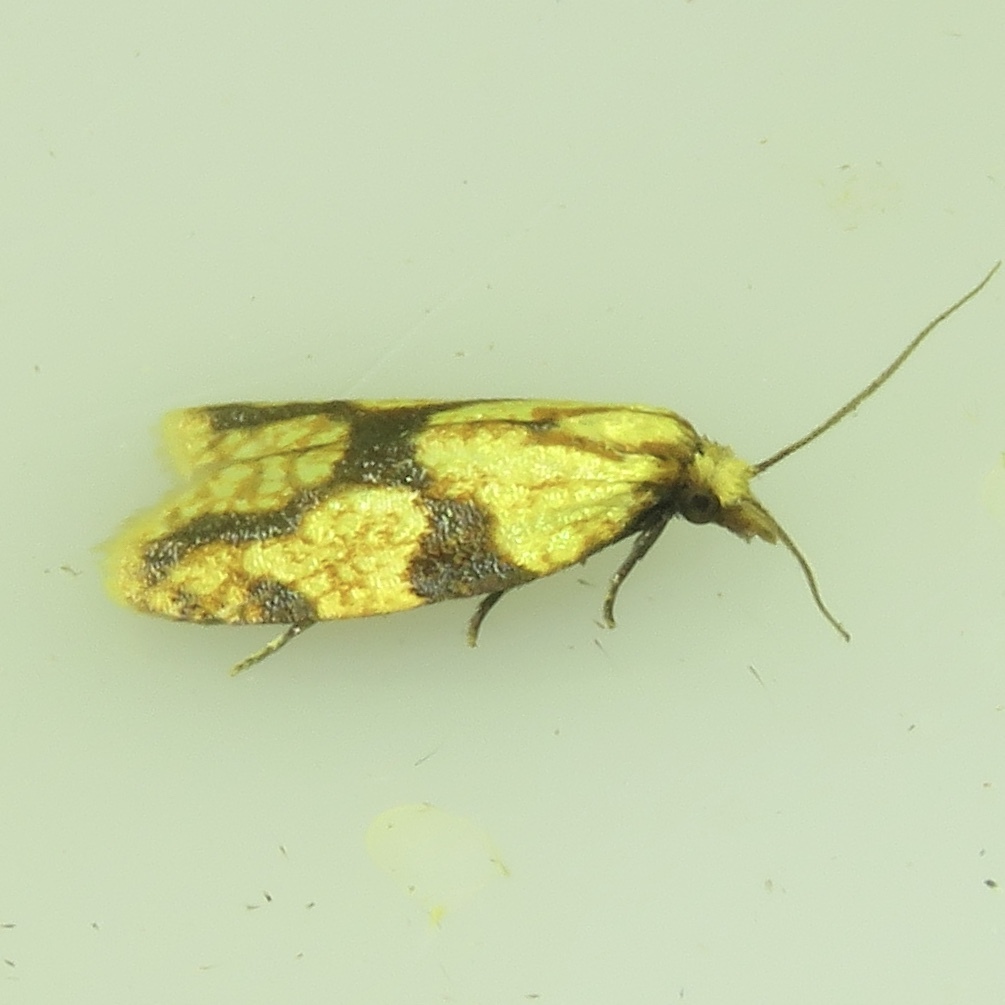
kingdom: Animalia
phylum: Arthropoda
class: Insecta
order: Lepidoptera
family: Tortricidae
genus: Sparganothis
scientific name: Sparganothis sulfureana
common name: Sparganothis fruitworm moth
